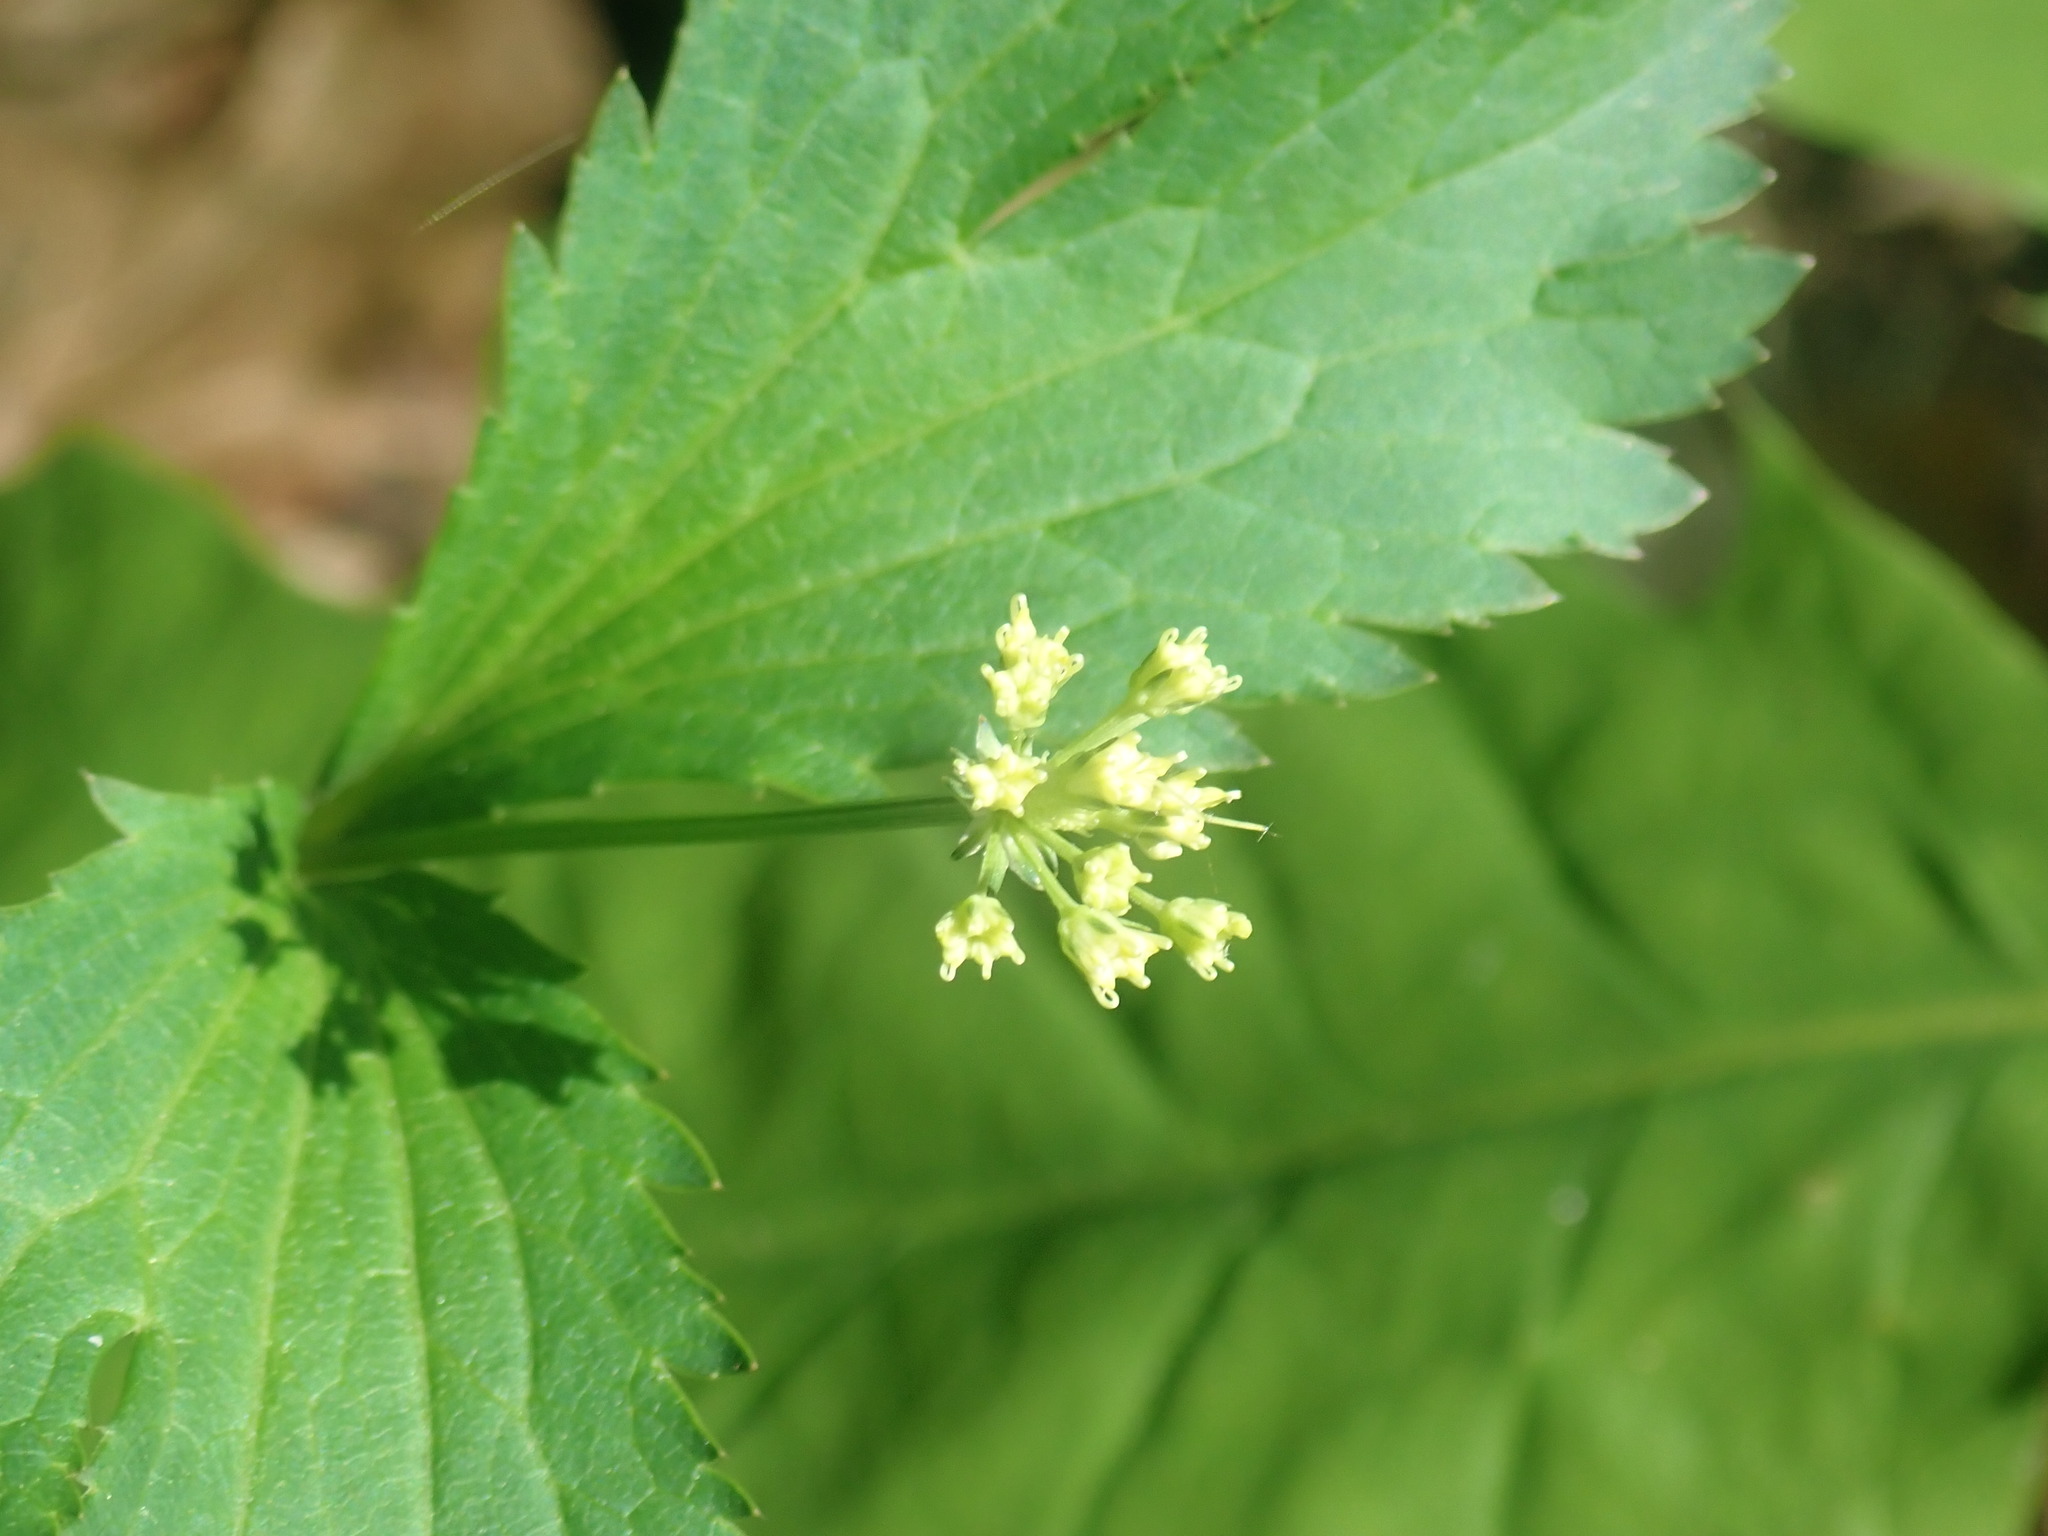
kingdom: Plantae
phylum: Tracheophyta
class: Magnoliopsida
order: Apiales
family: Apiaceae
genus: Sanicula
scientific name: Sanicula marilandica
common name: Black snakeroot
